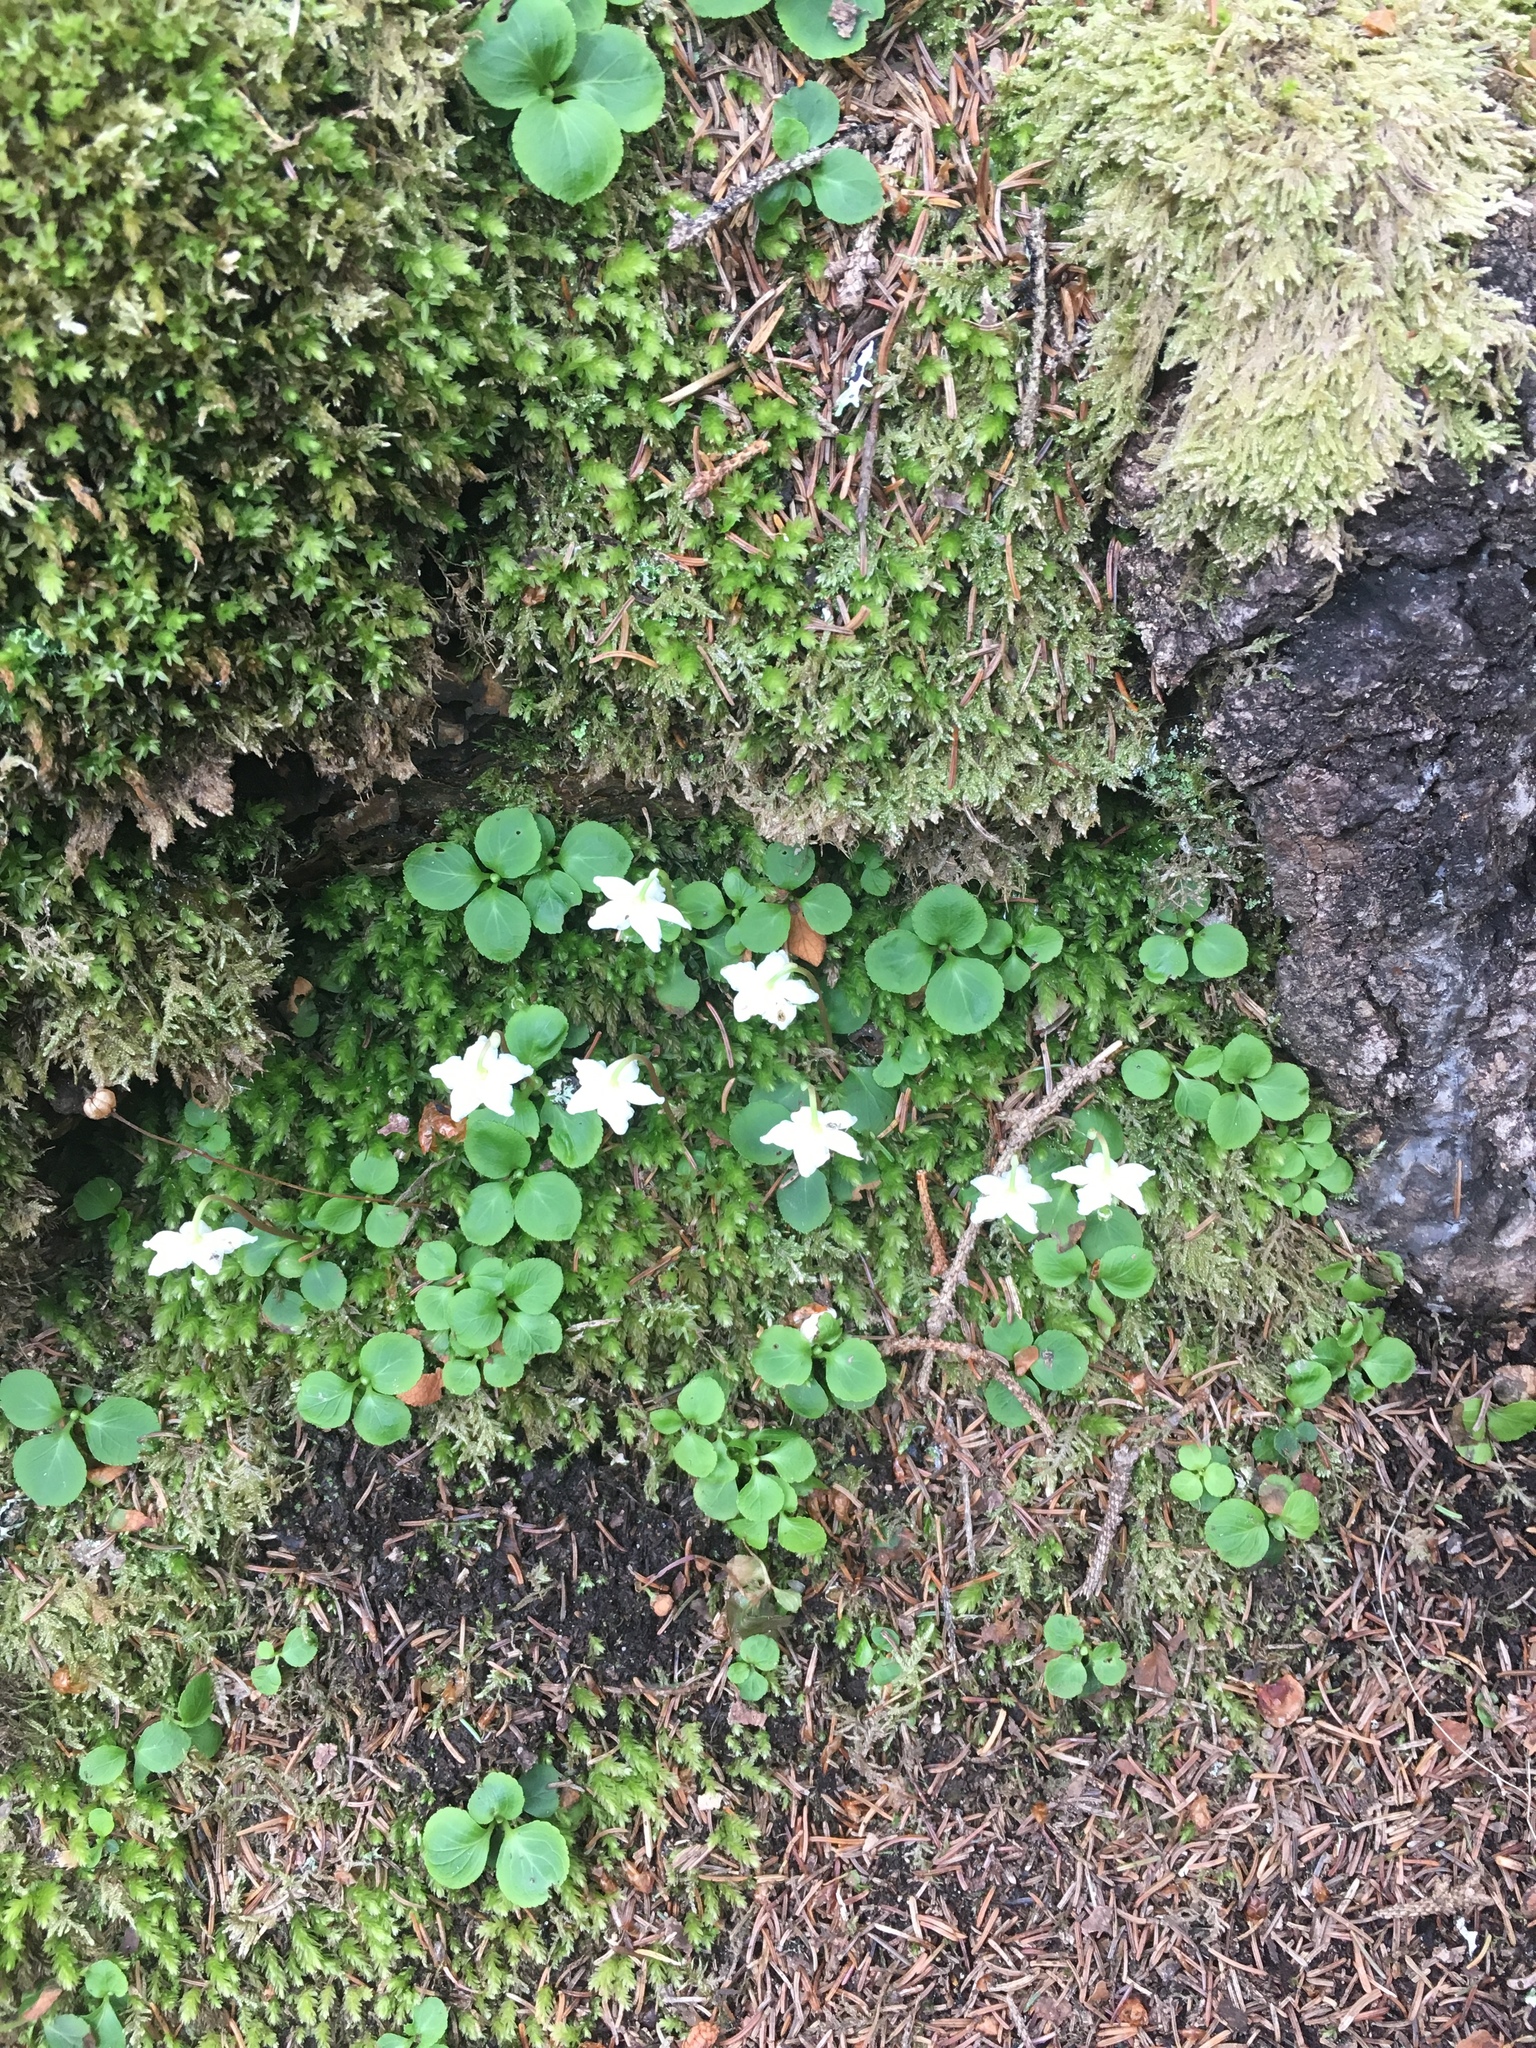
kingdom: Plantae
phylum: Tracheophyta
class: Magnoliopsida
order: Ericales
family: Ericaceae
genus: Moneses
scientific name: Moneses uniflora
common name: One-flowered wintergreen
